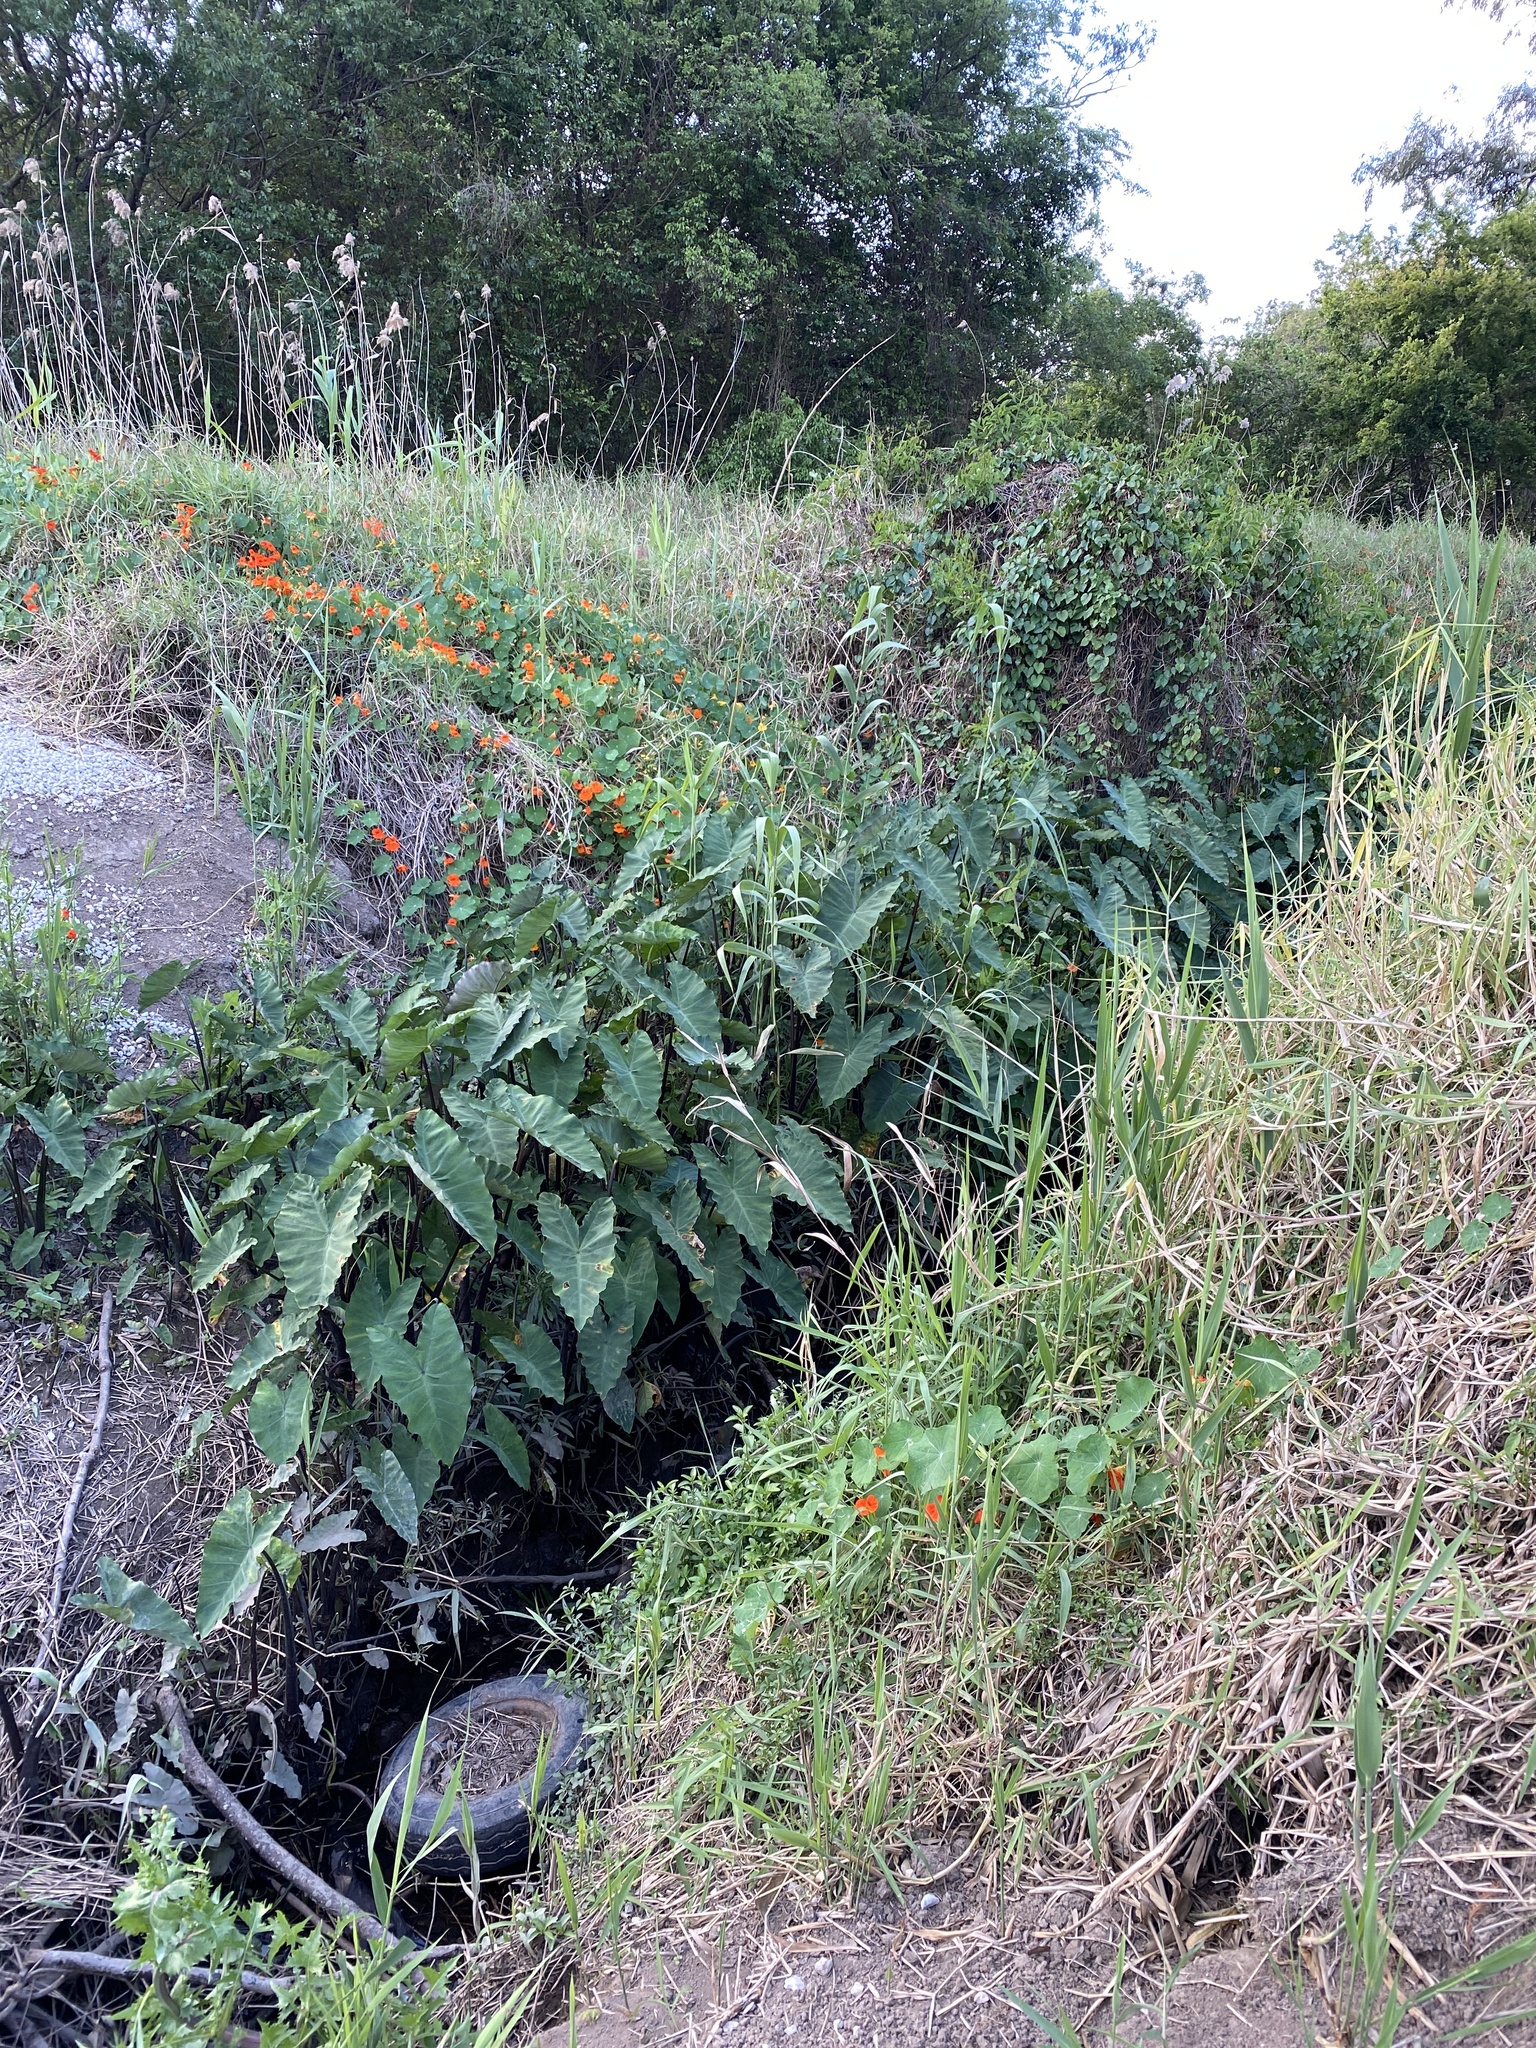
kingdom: Plantae
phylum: Tracheophyta
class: Liliopsida
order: Alismatales
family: Araceae
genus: Colocasia
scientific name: Colocasia esculenta
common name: Taro
